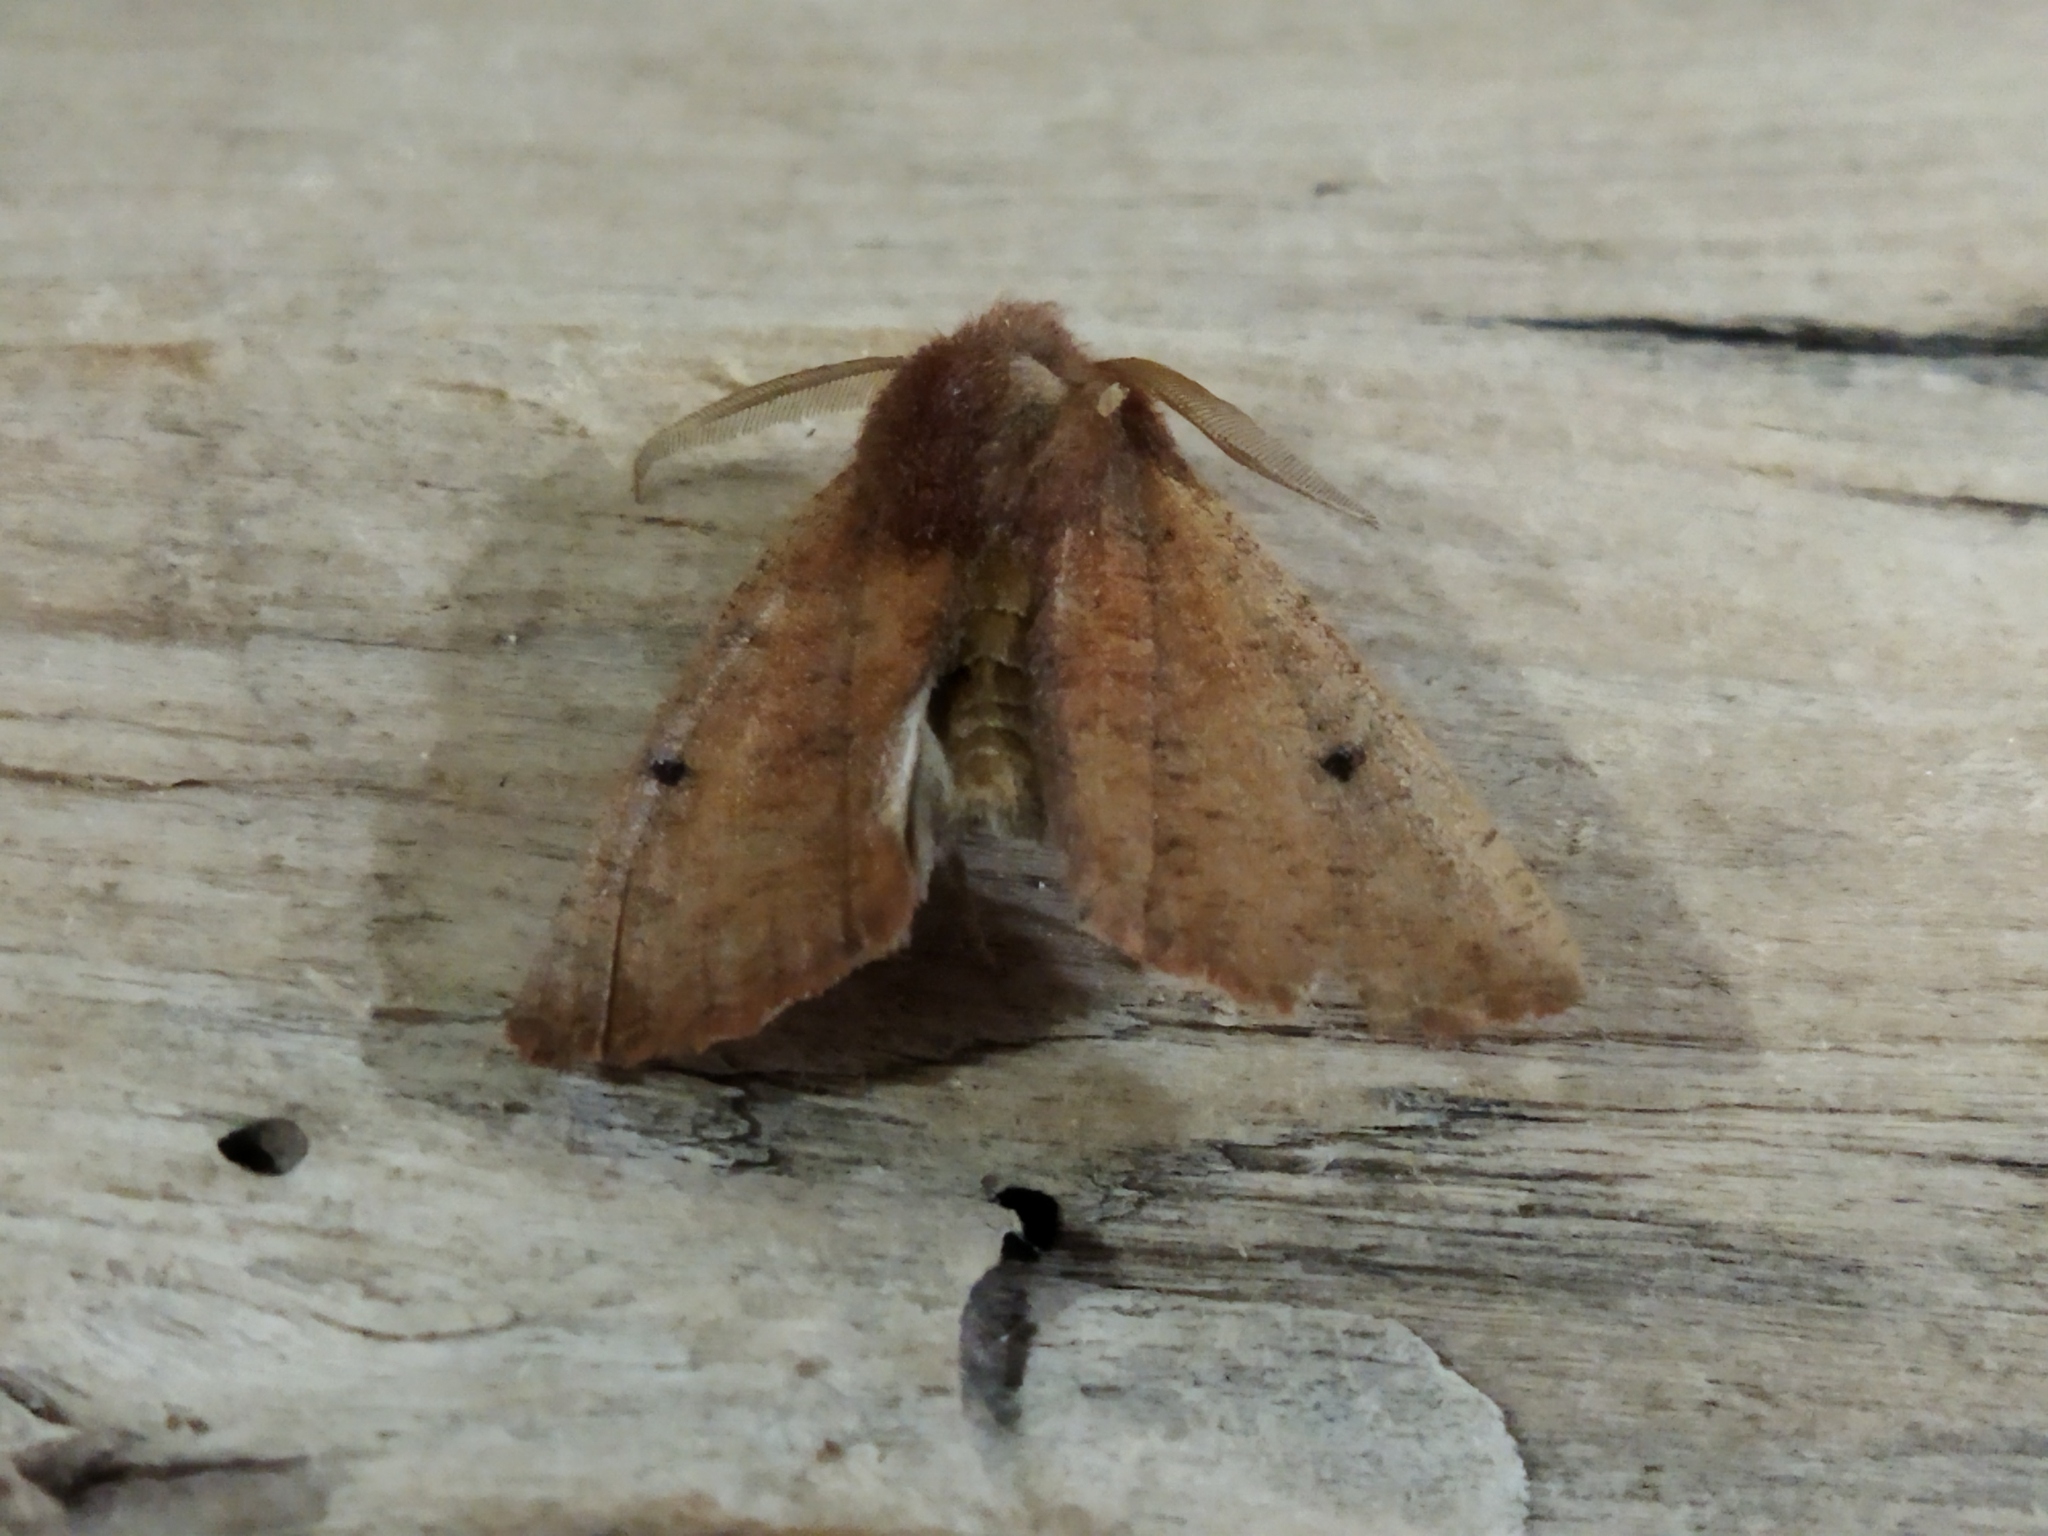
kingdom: Animalia
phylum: Arthropoda
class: Insecta
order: Lepidoptera
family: Geometridae
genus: Dasycorsa
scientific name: Dasycorsa modesta
